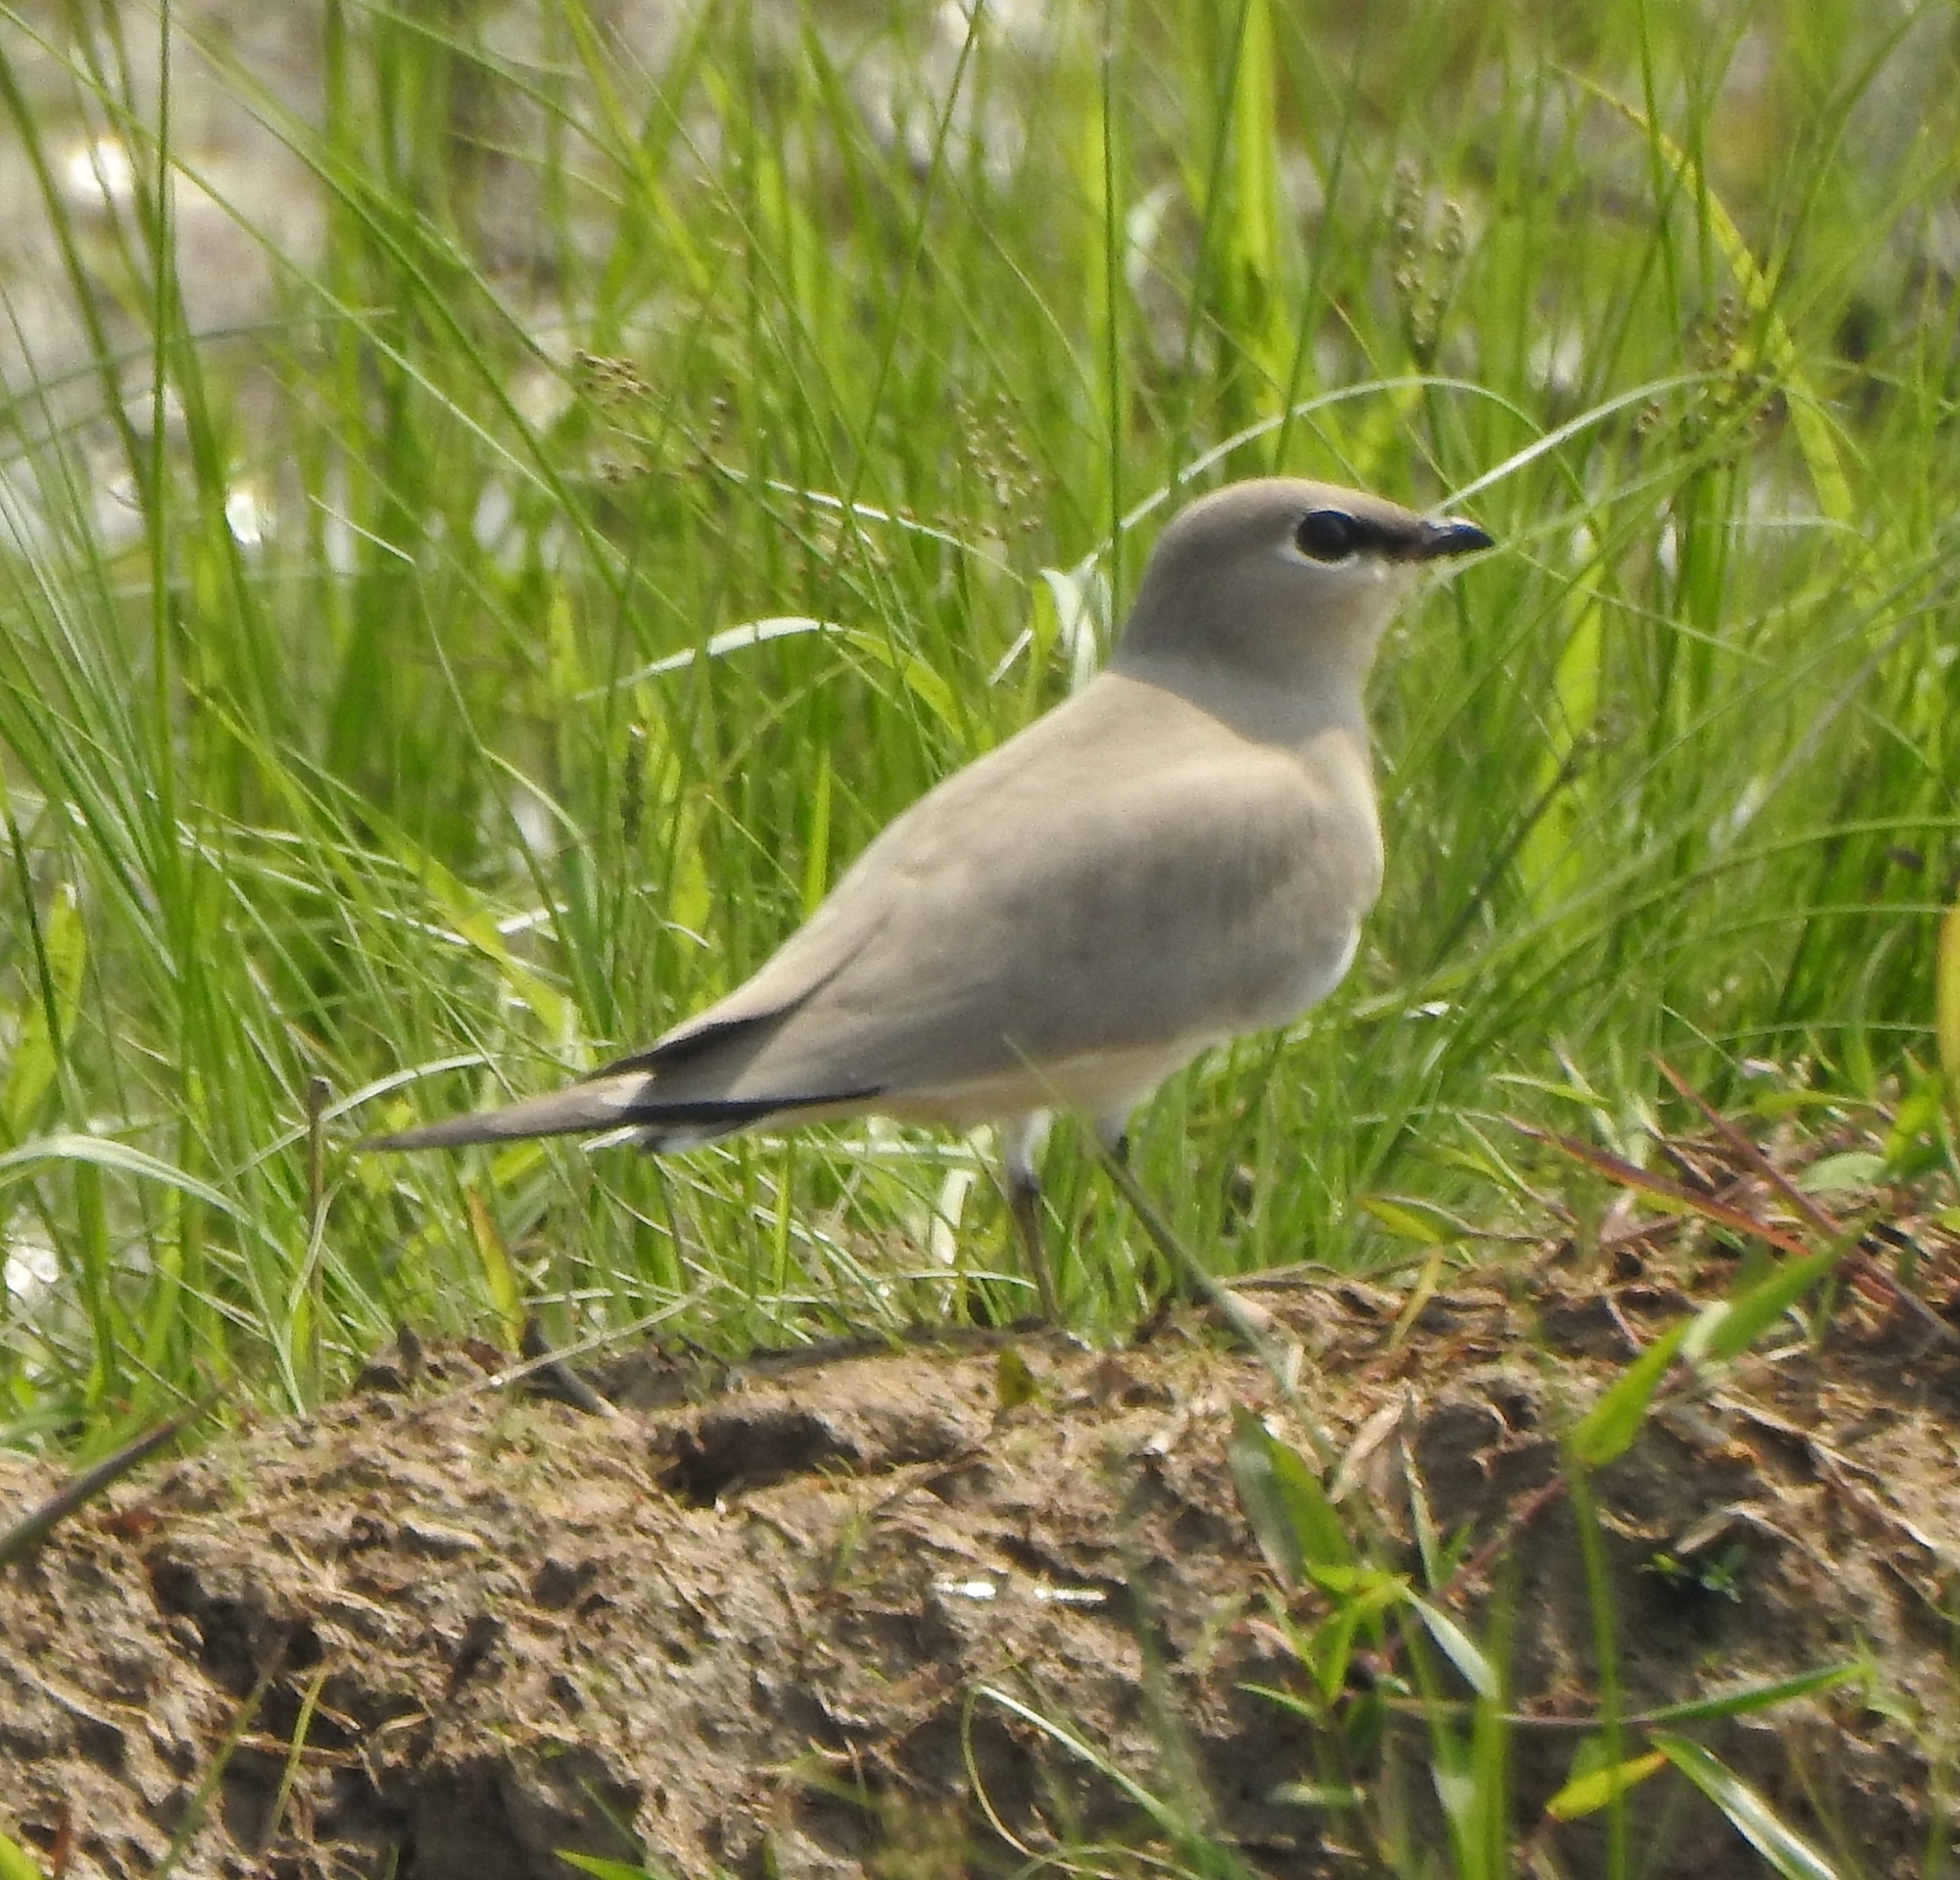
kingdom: Animalia
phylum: Chordata
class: Aves
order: Charadriiformes
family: Glareolidae
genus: Glareola
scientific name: Glareola lactea
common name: Small pratincole
